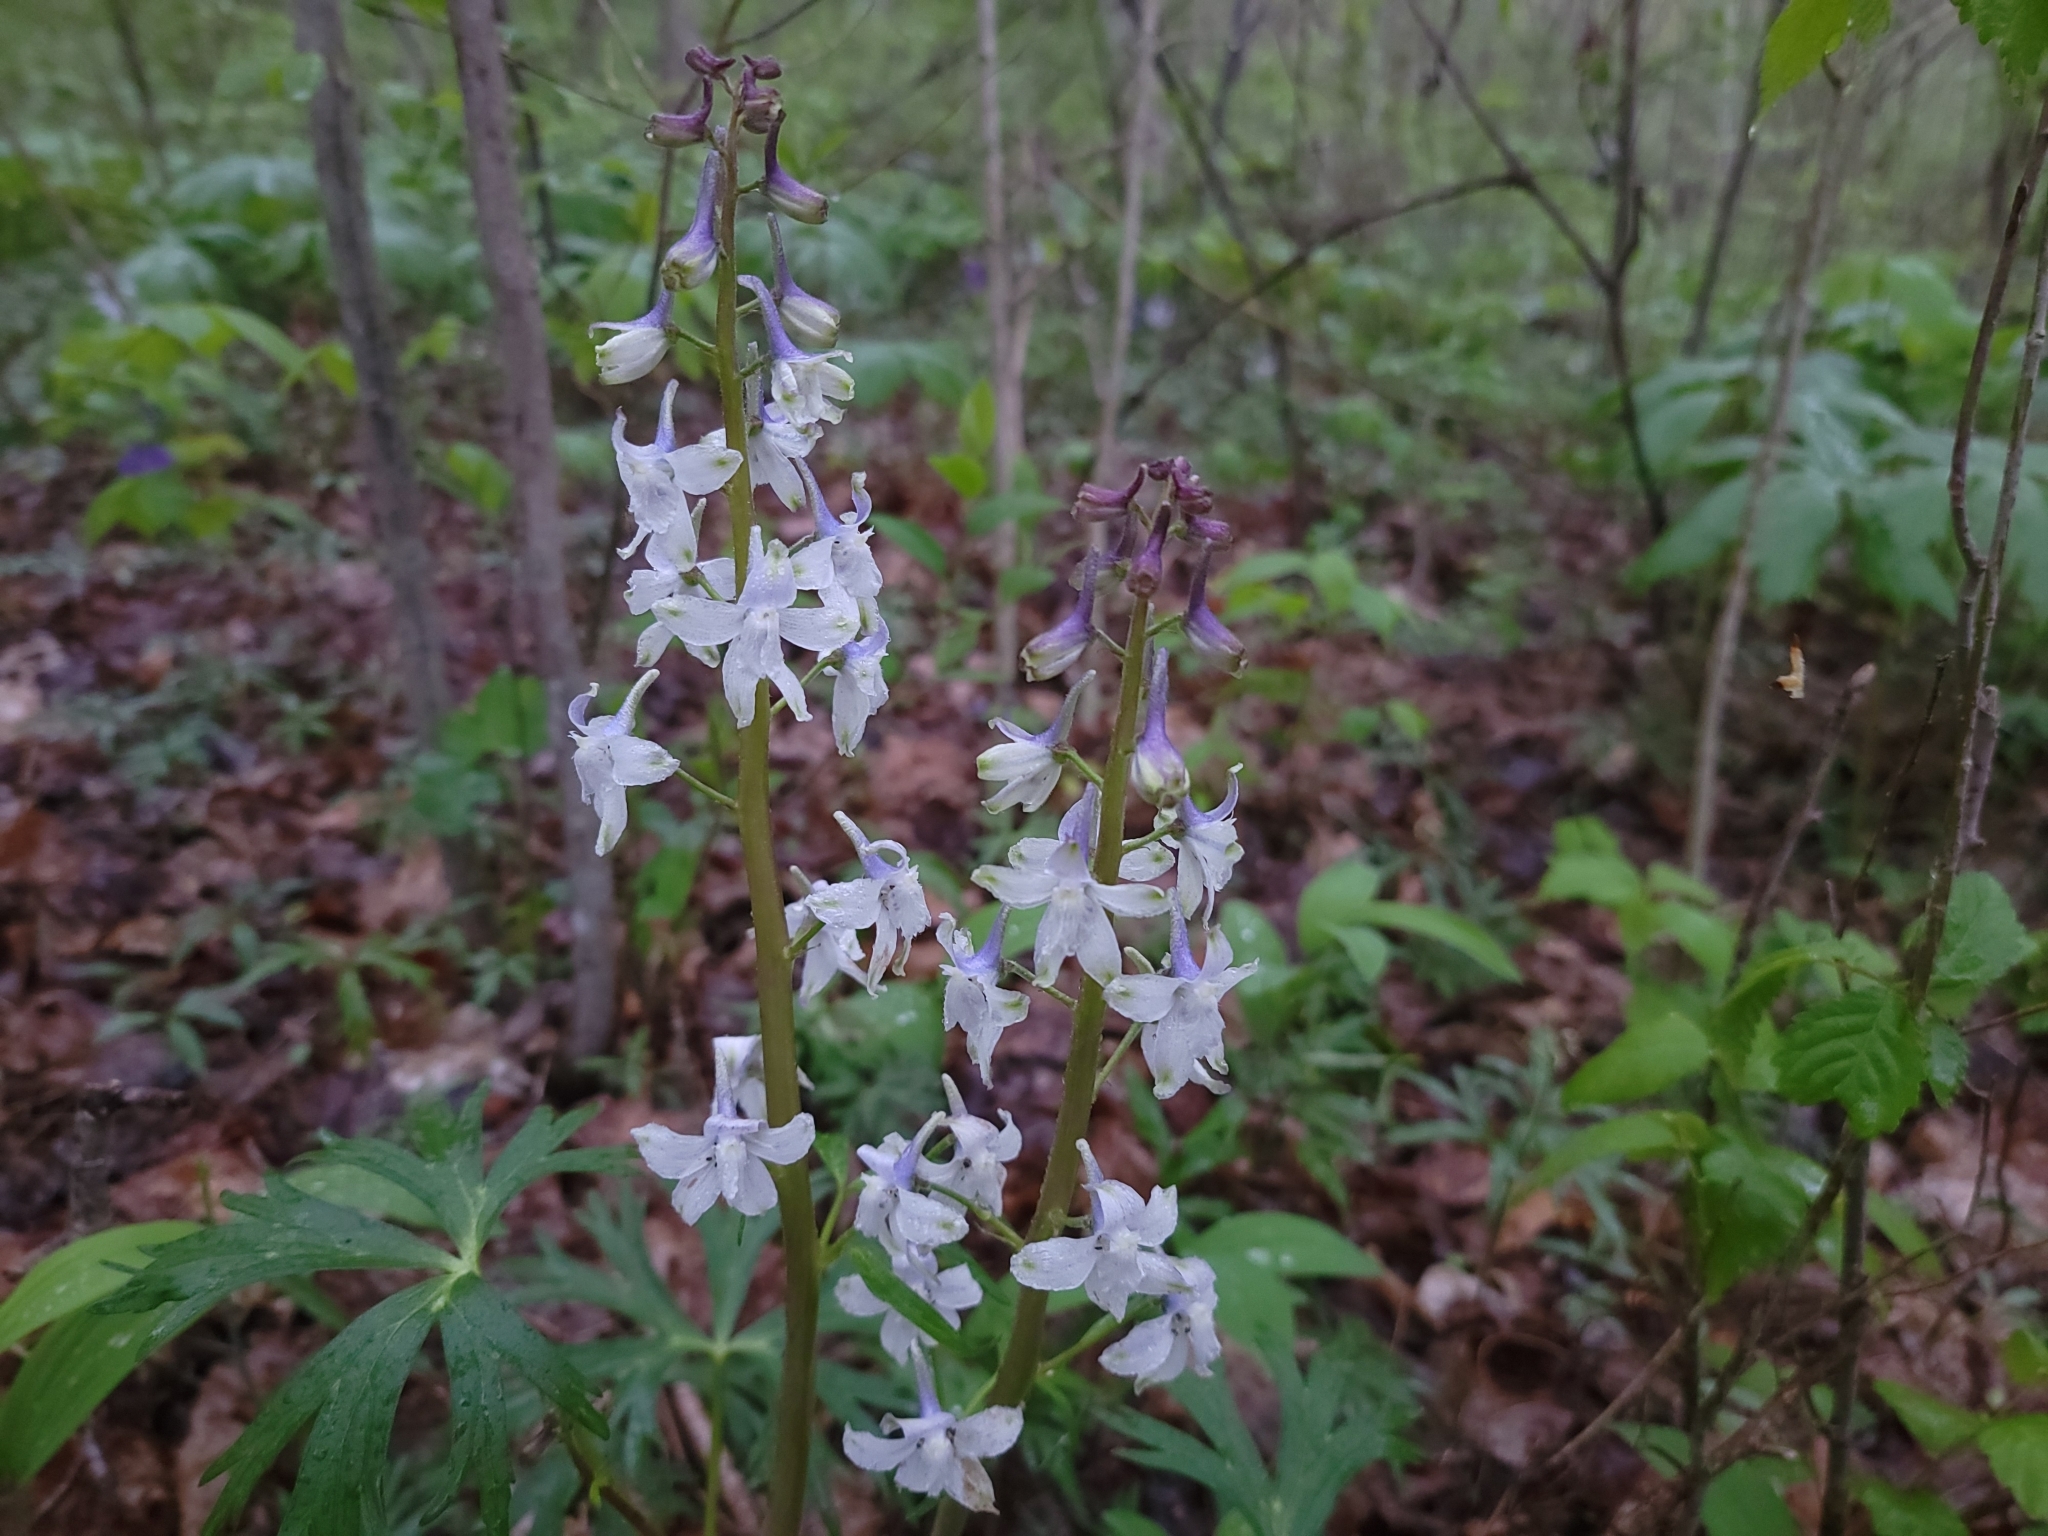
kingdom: Plantae
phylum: Tracheophyta
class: Magnoliopsida
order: Ranunculales
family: Ranunculaceae
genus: Delphinium
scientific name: Delphinium tricorne
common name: Dwarf larkspur
